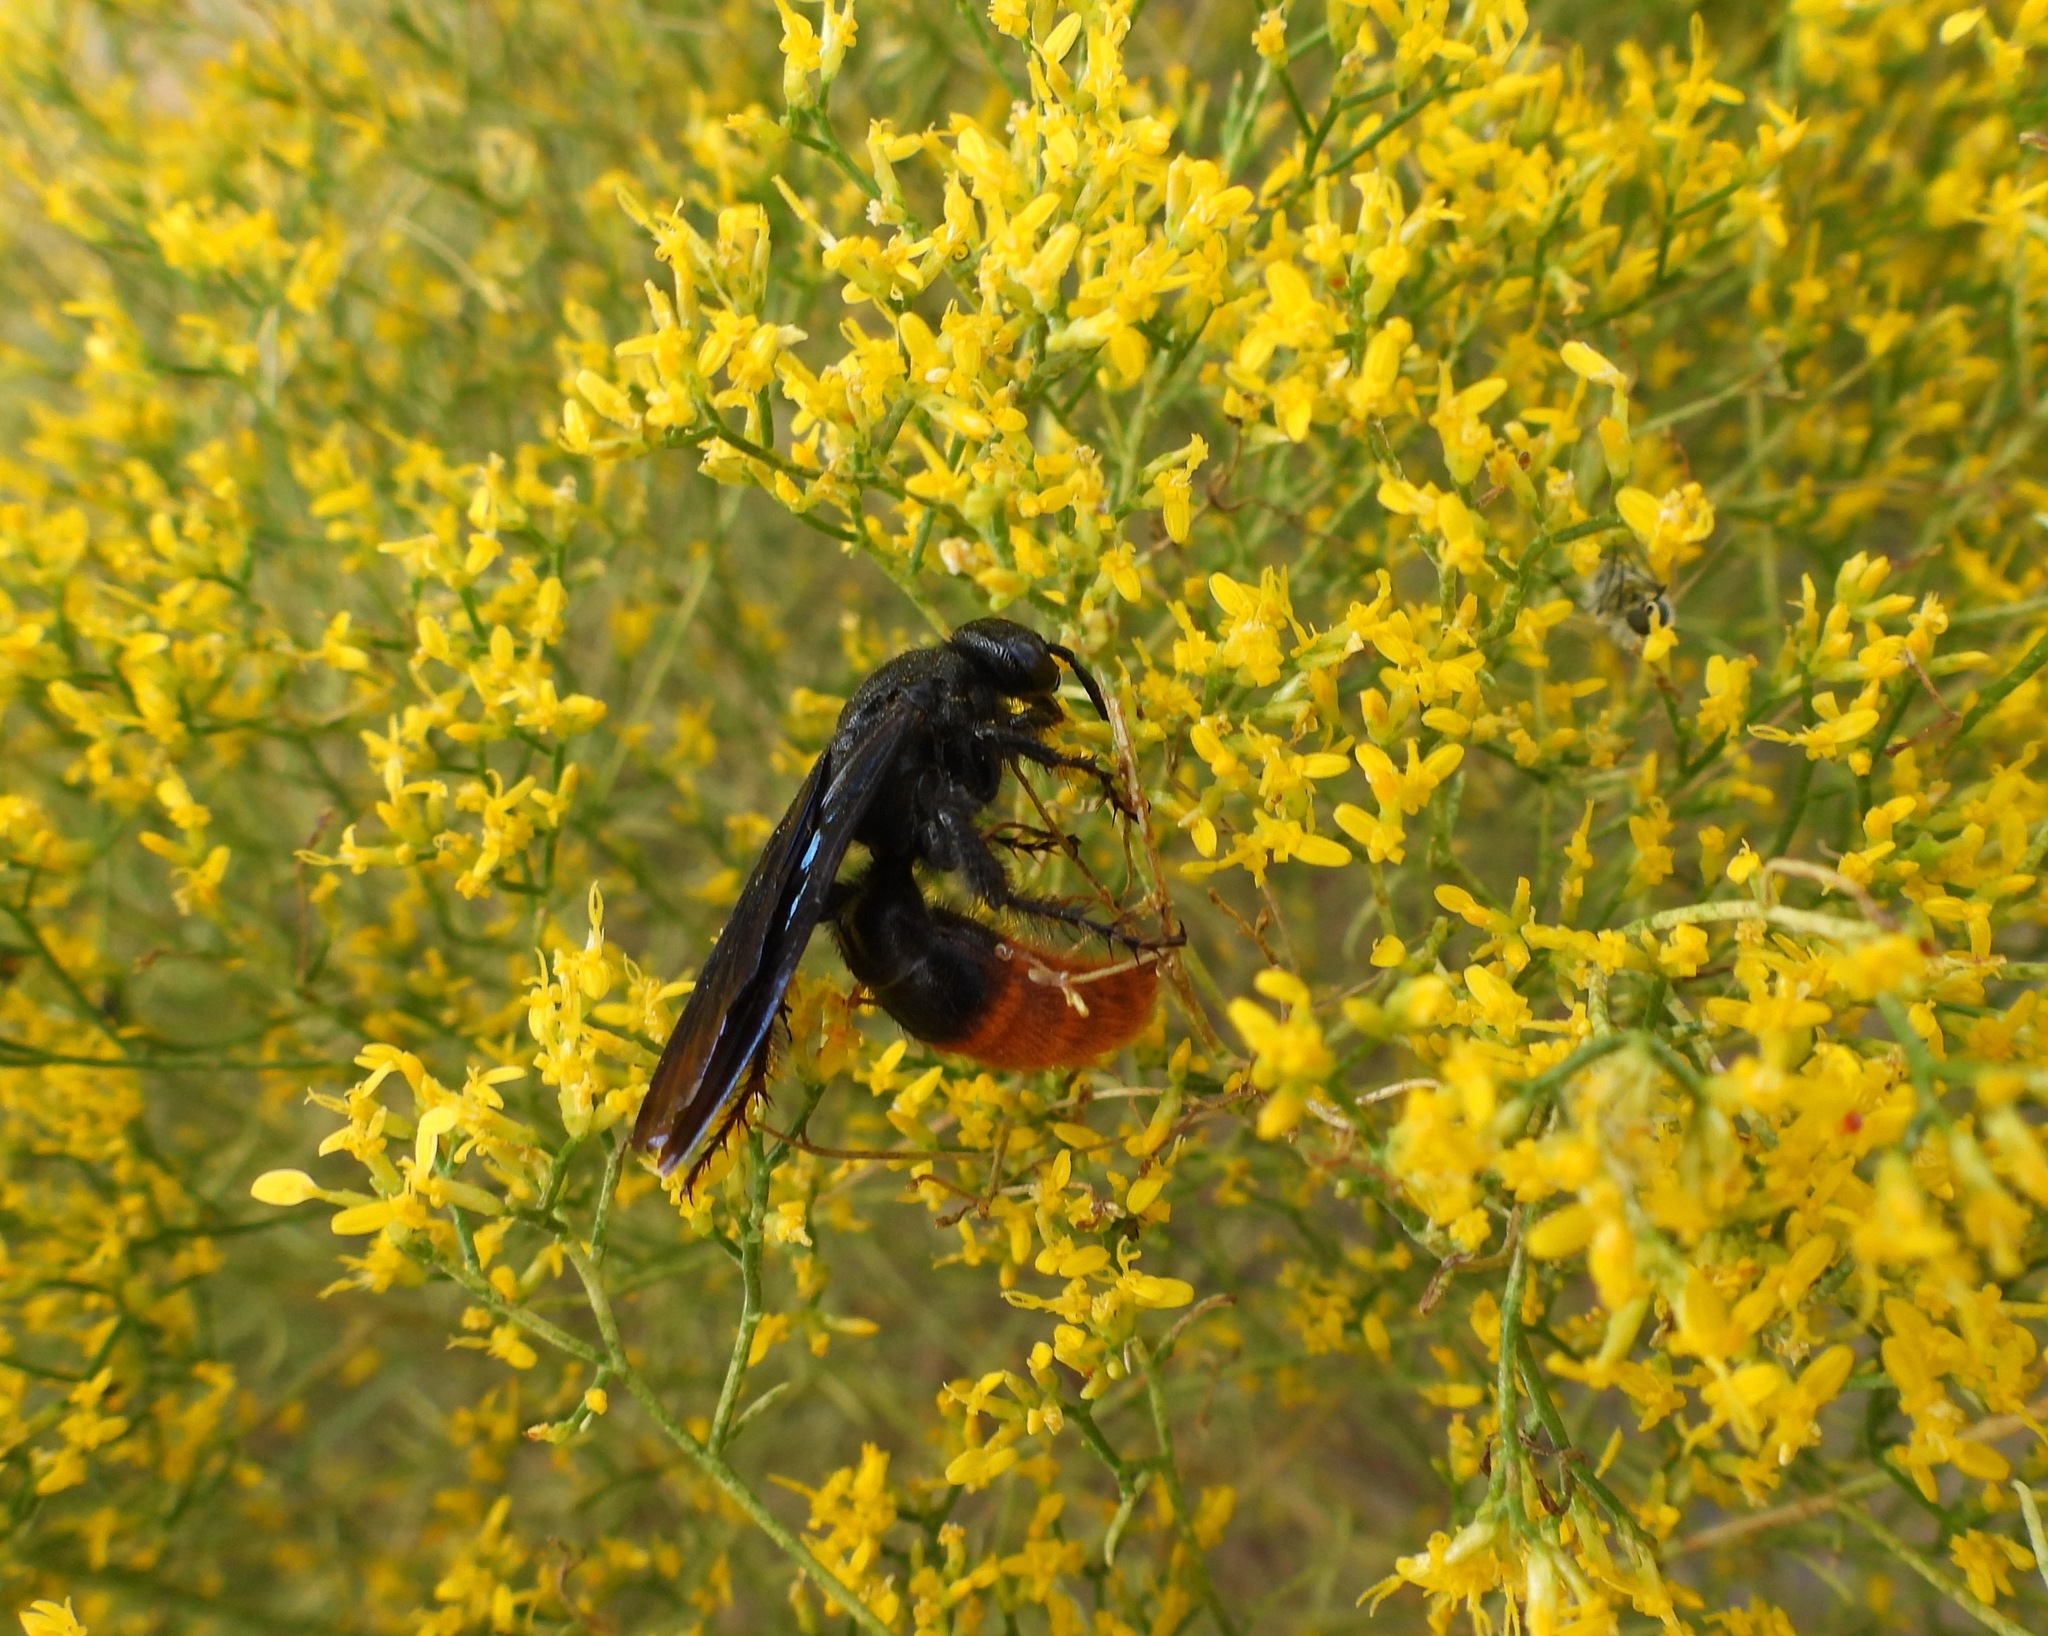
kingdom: Animalia
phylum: Arthropoda
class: Insecta
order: Hymenoptera
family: Scoliidae
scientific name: Scoliidae
